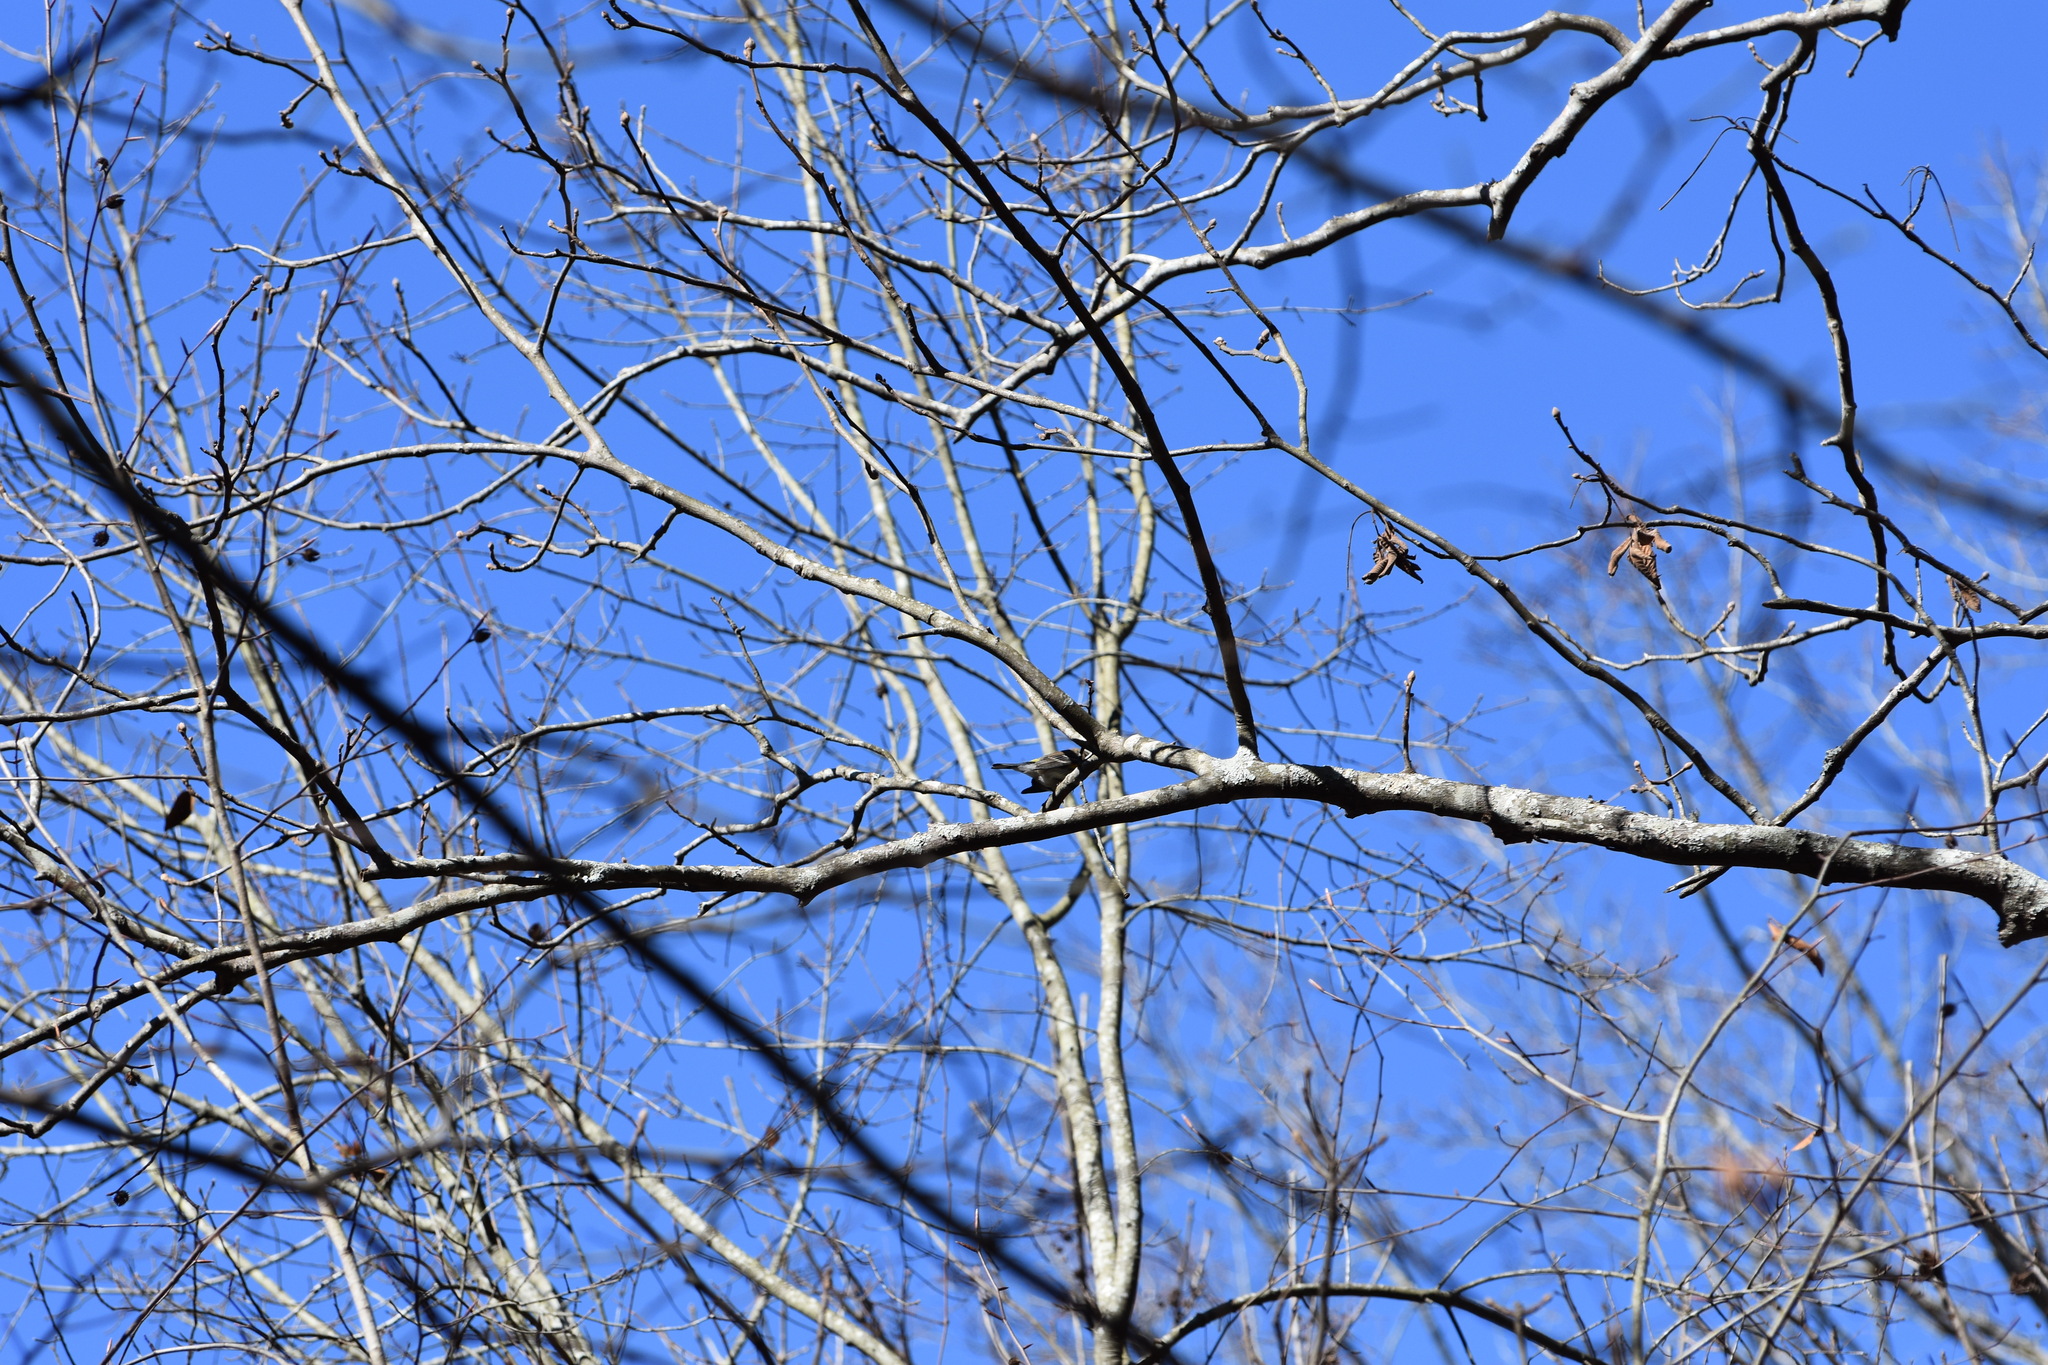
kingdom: Animalia
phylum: Chordata
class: Aves
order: Passeriformes
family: Parulidae
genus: Setophaga
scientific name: Setophaga coronata
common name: Myrtle warbler
